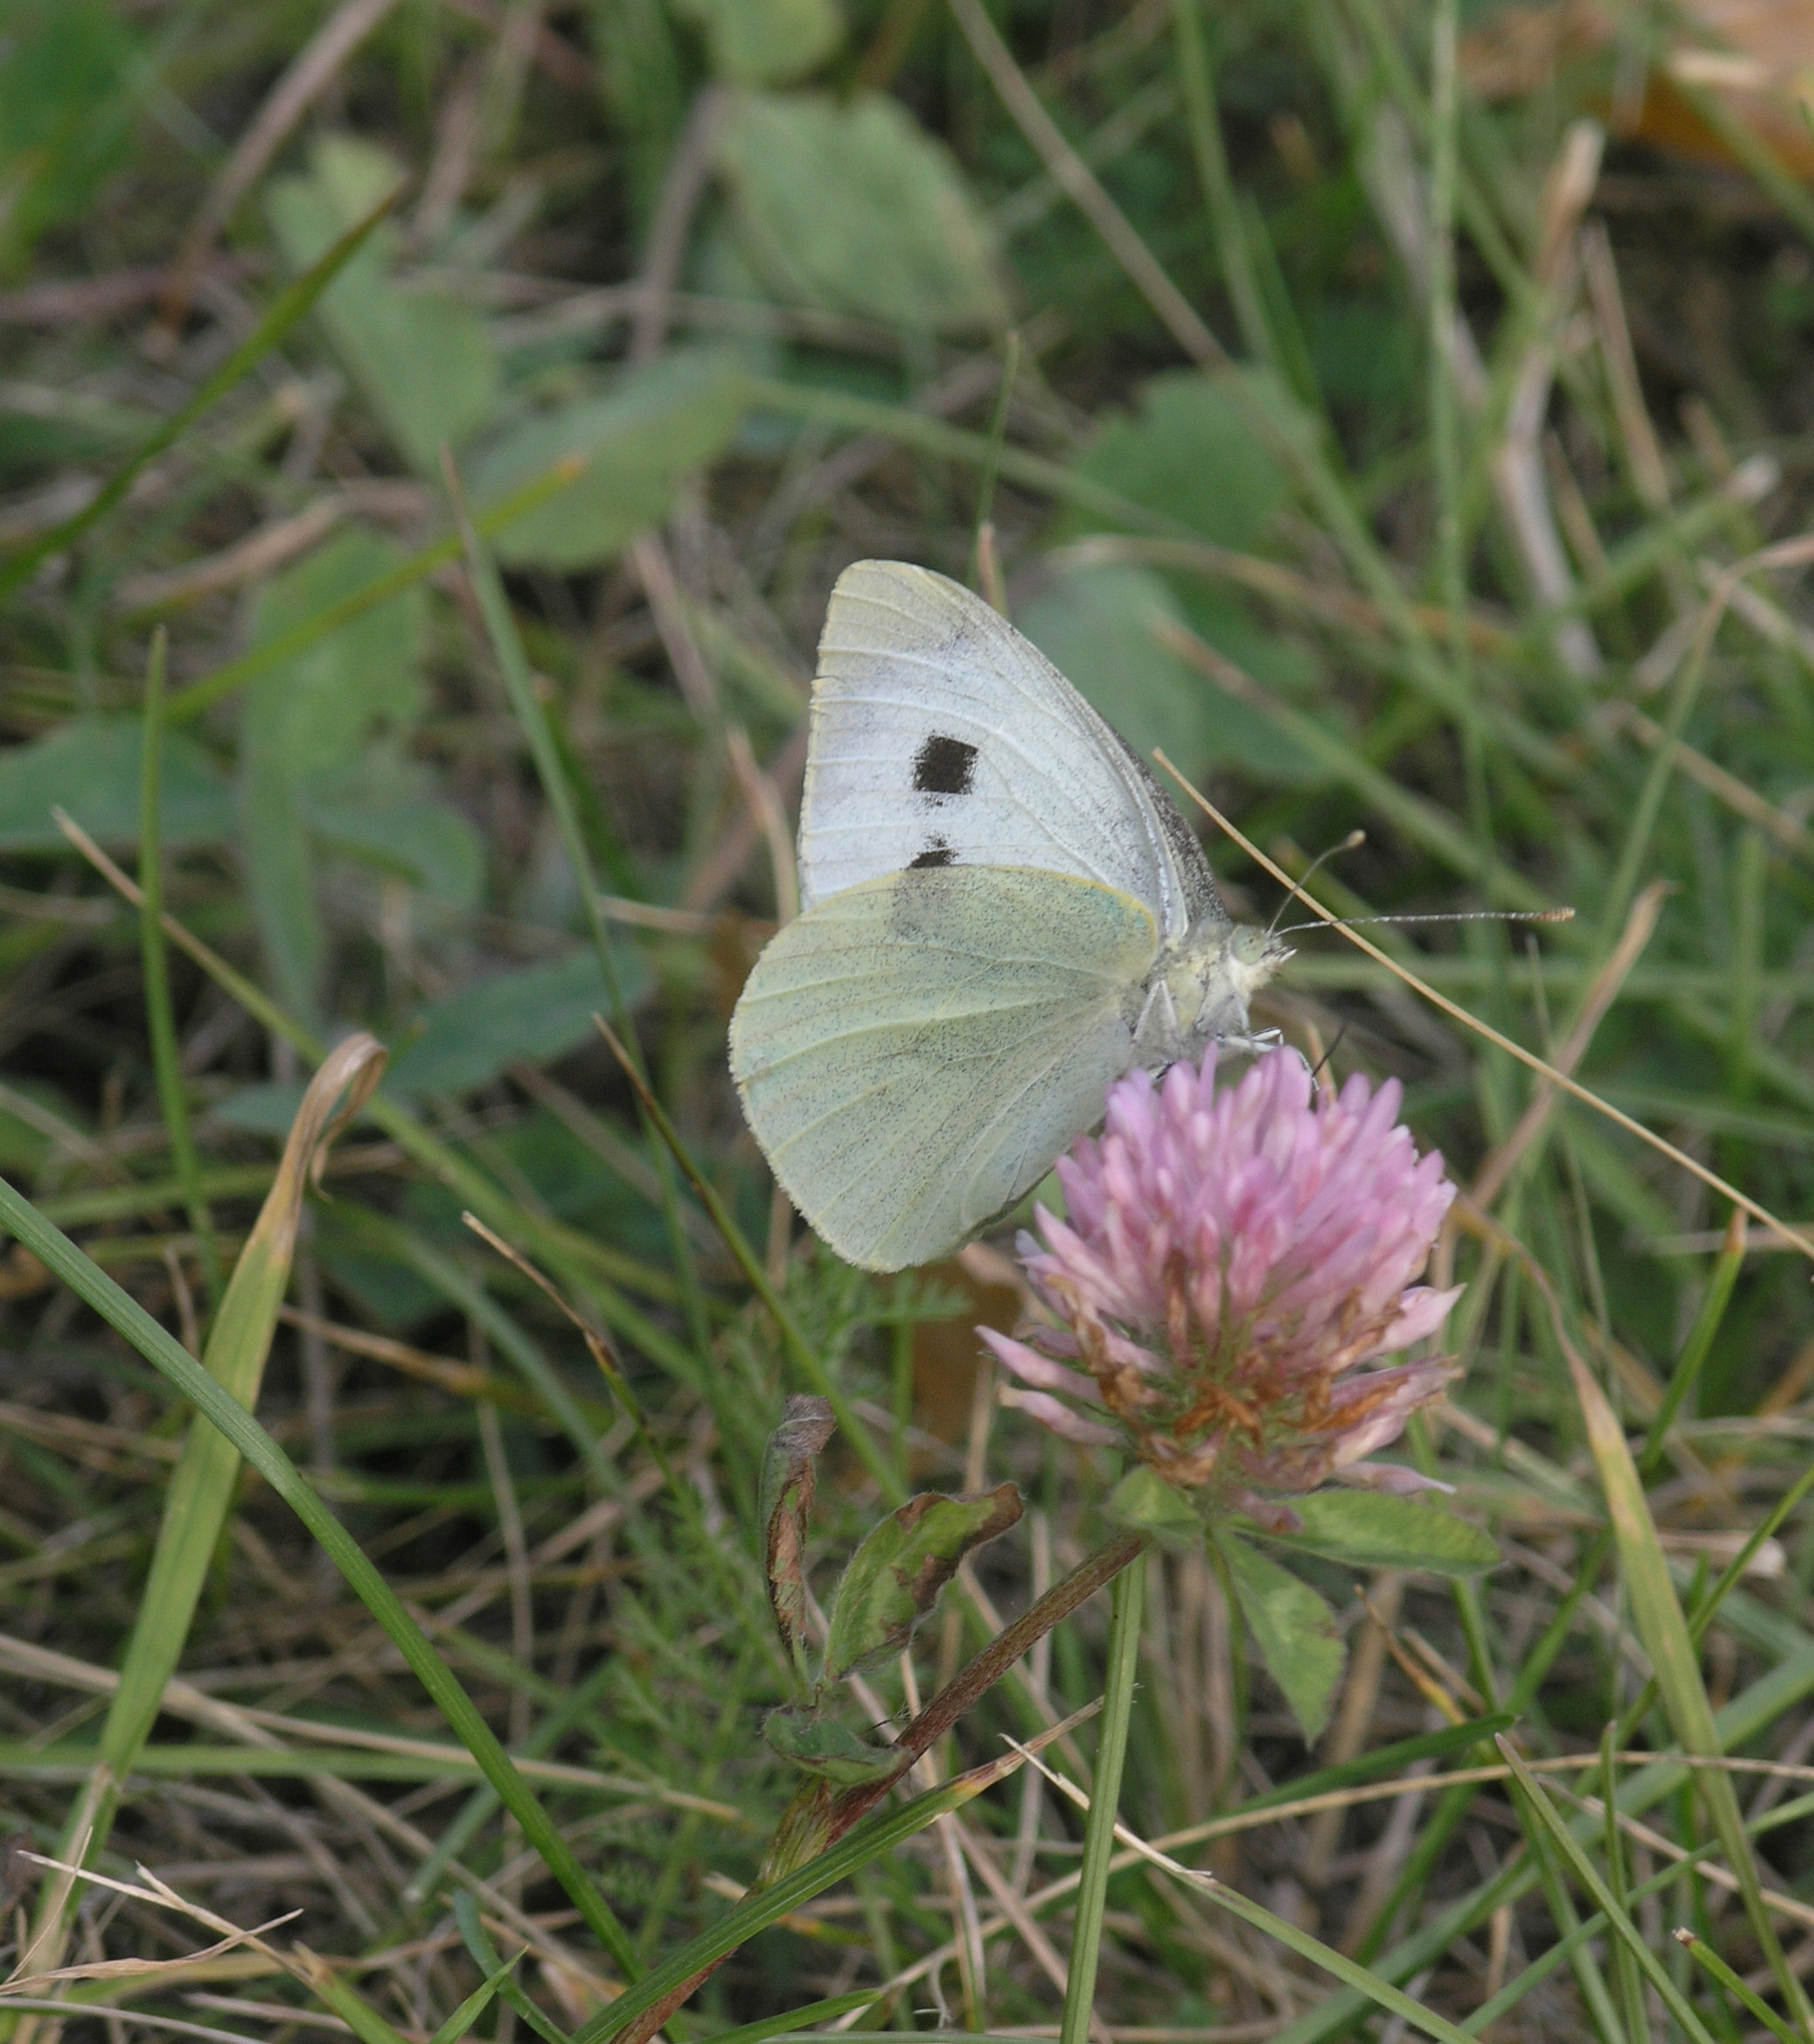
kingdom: Animalia
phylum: Arthropoda
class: Insecta
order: Lepidoptera
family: Pieridae
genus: Pieris
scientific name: Pieris brassicae
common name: Large white
